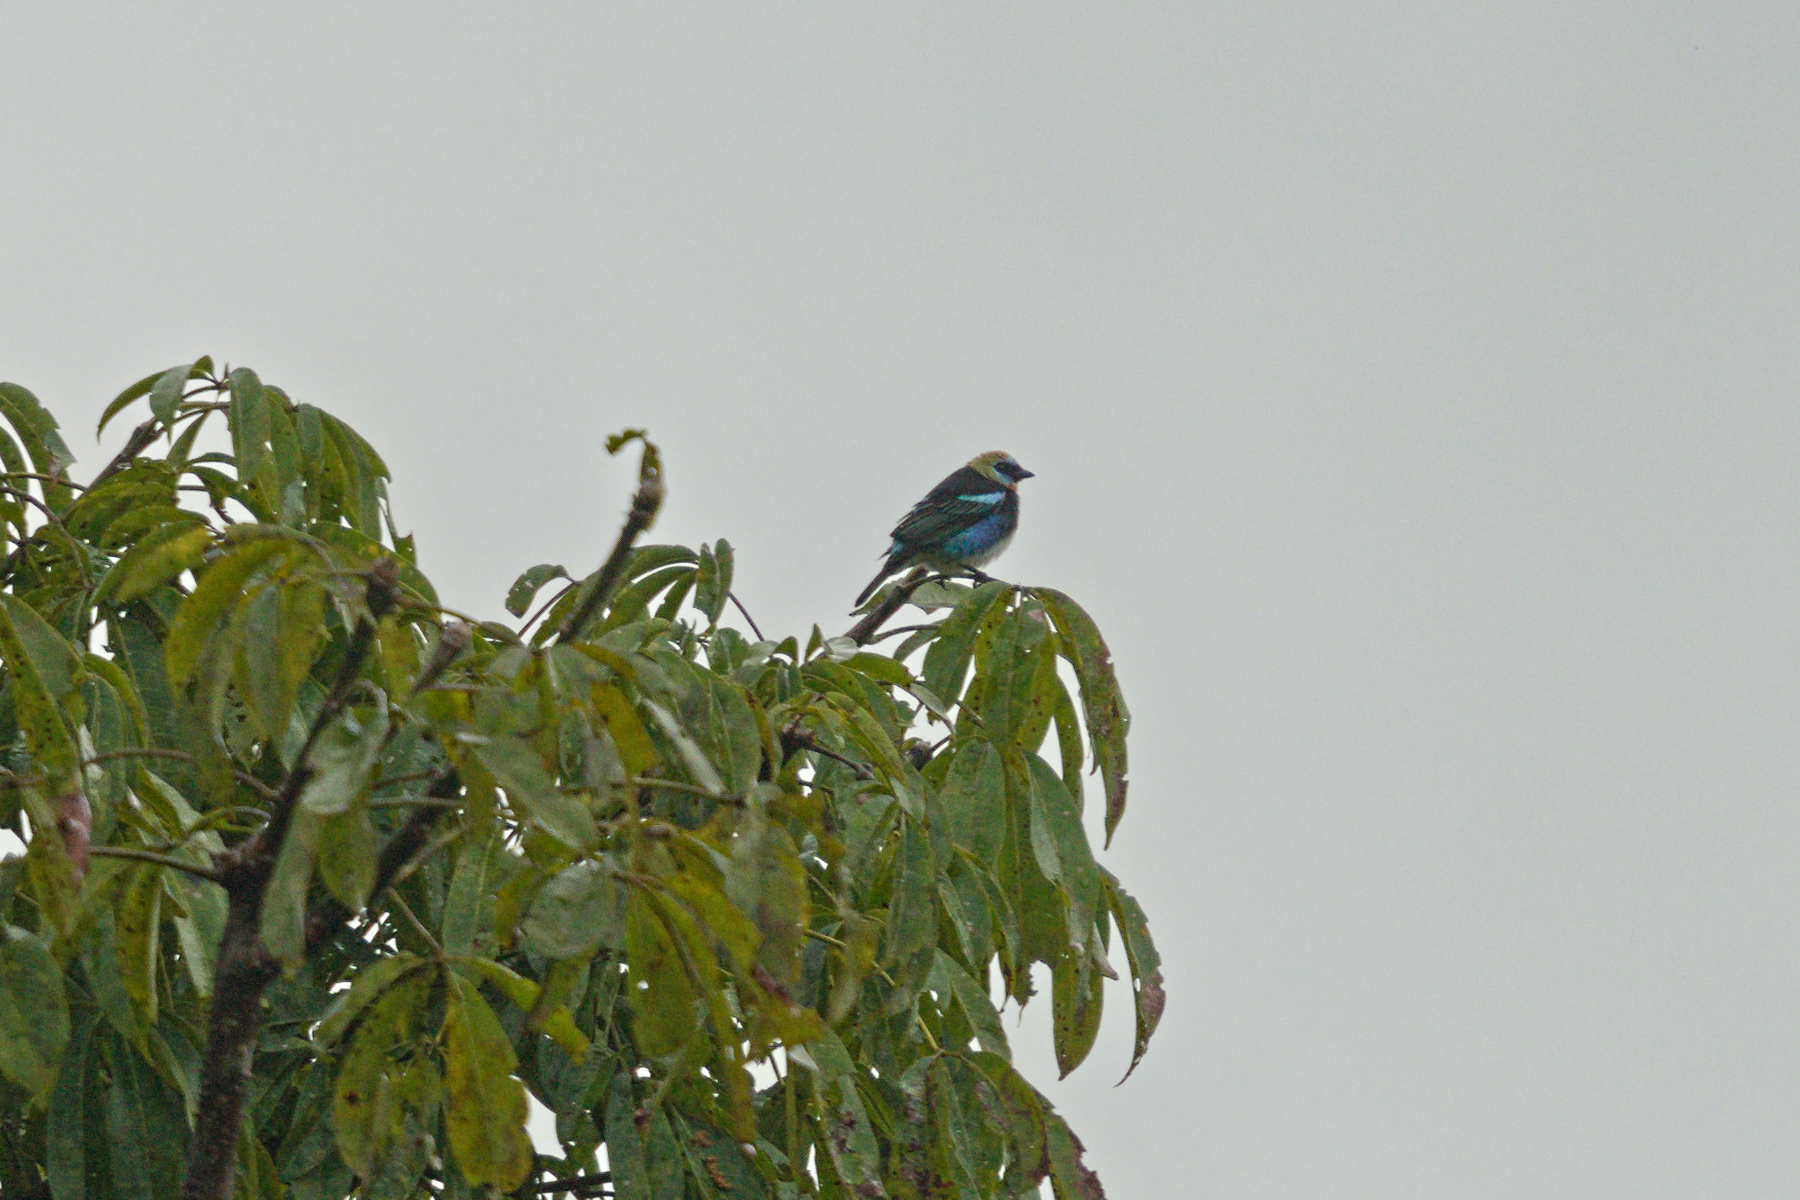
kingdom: Animalia
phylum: Chordata
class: Aves
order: Passeriformes
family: Thraupidae
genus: Stilpnia
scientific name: Stilpnia larvata
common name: Golden-hooded tanager
